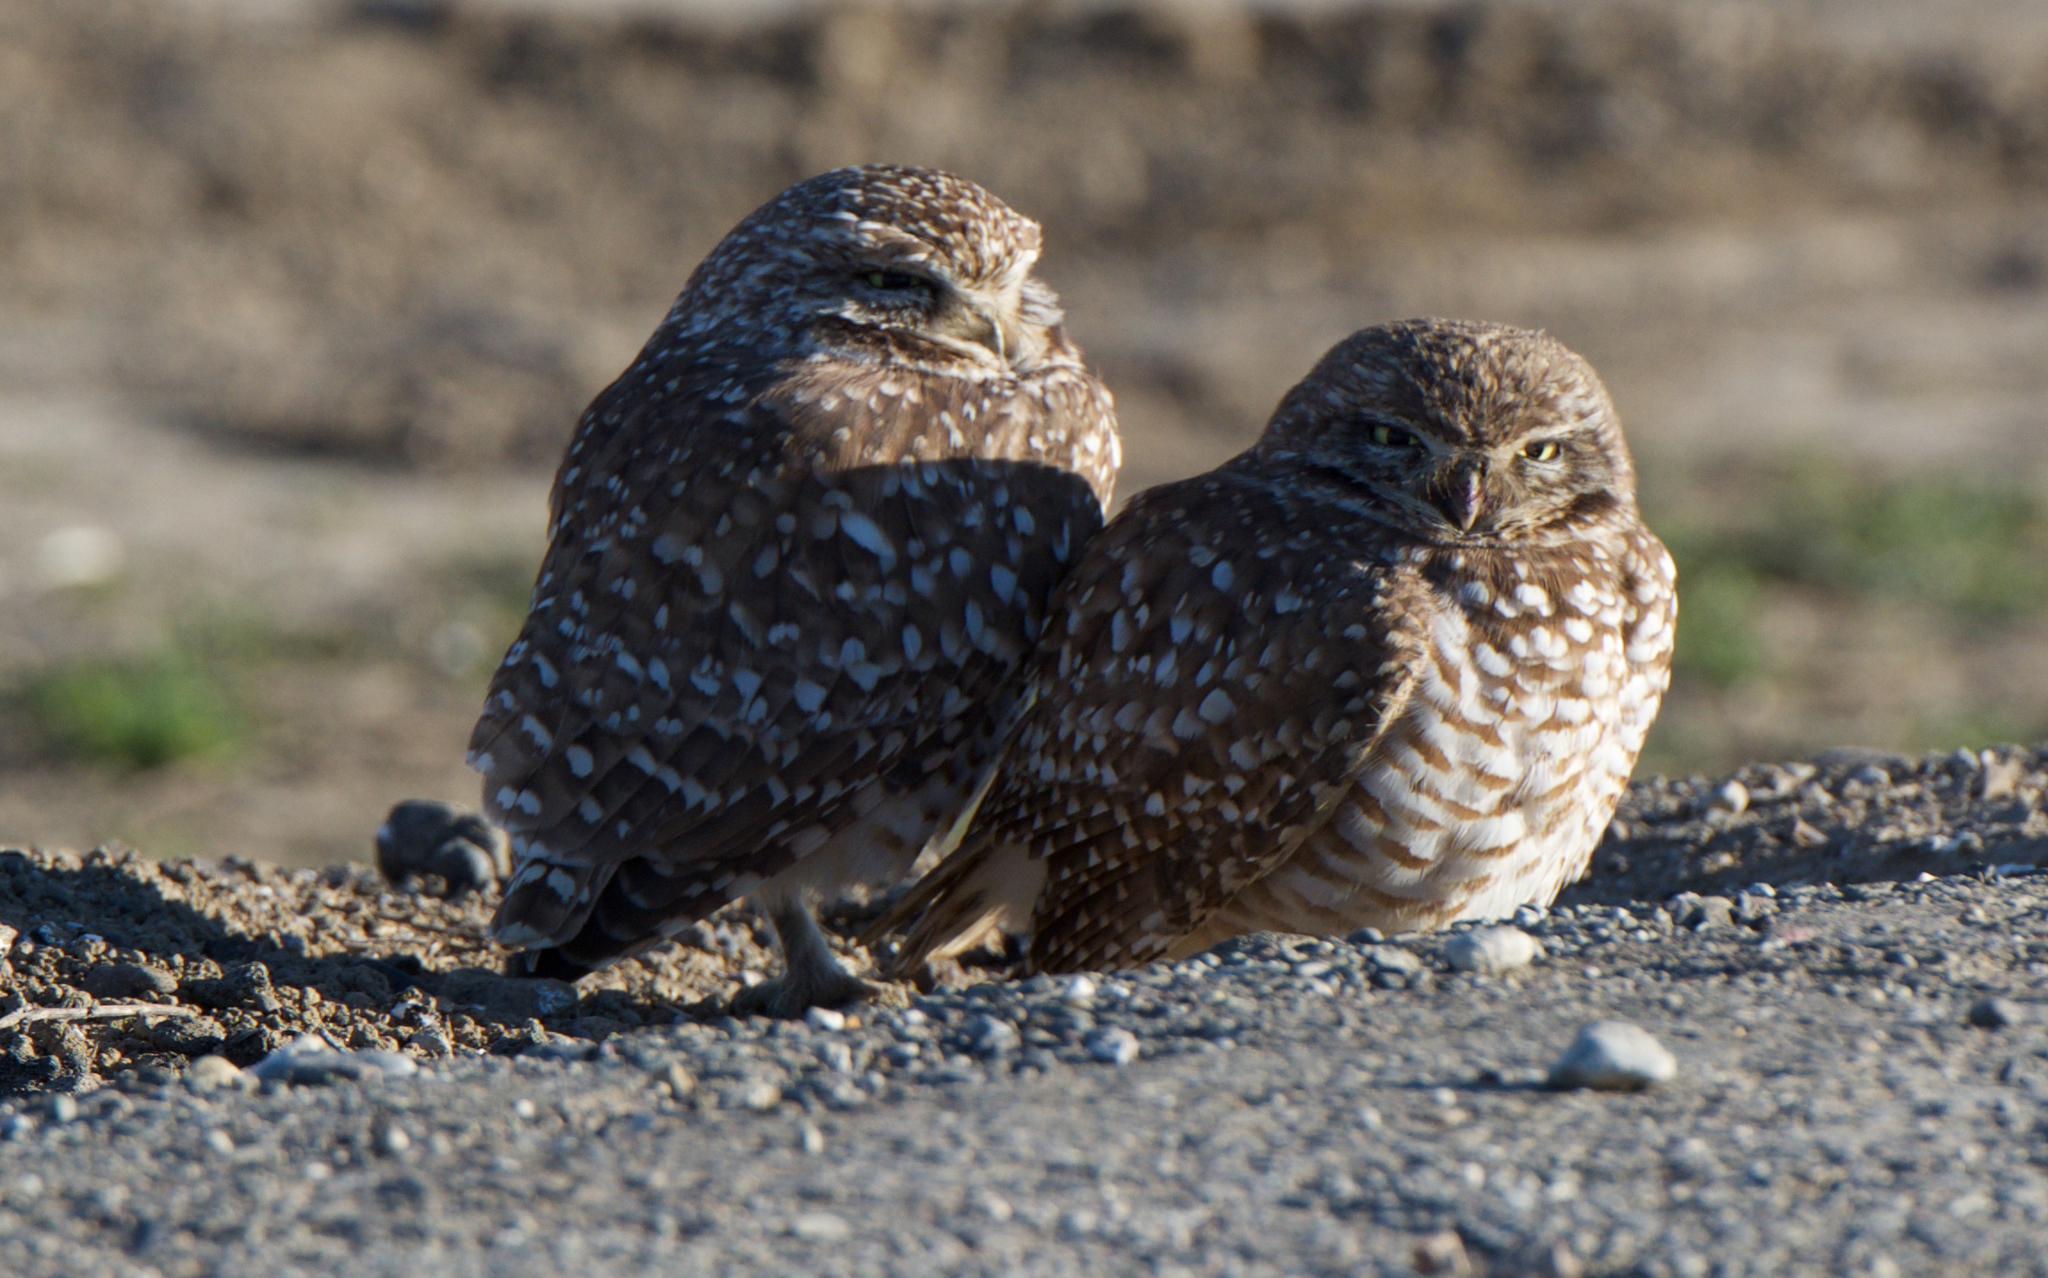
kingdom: Animalia
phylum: Chordata
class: Aves
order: Strigiformes
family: Strigidae
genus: Athene
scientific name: Athene cunicularia
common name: Burrowing owl
